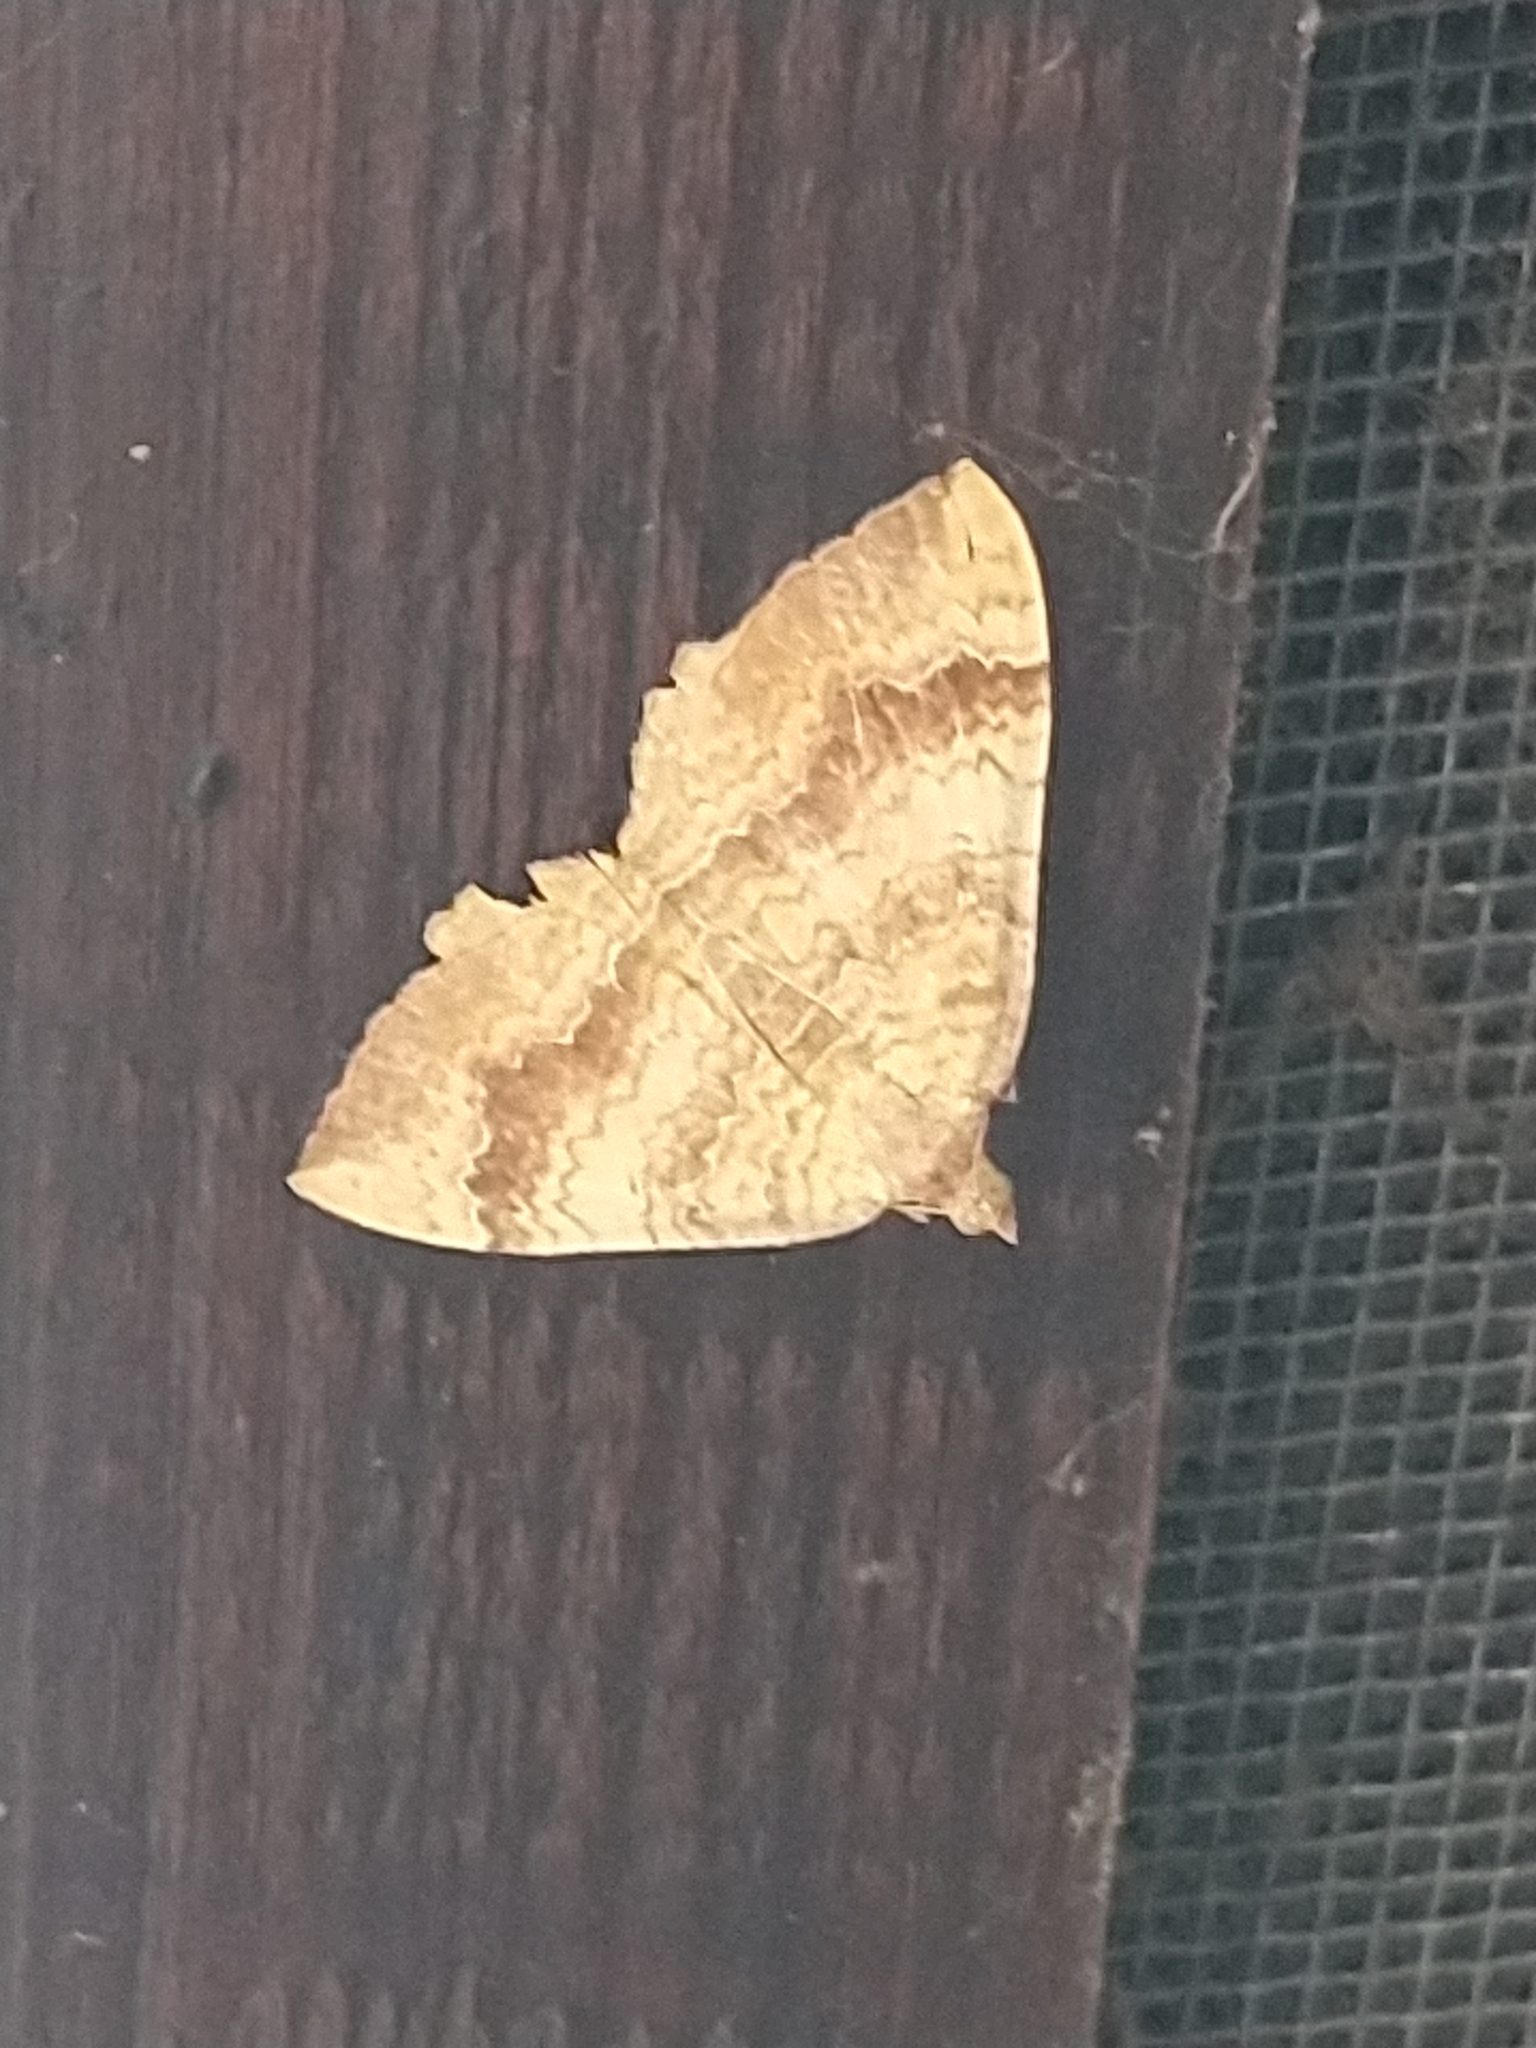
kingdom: Animalia
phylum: Arthropoda
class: Insecta
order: Lepidoptera
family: Geometridae
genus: Camptogramma
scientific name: Camptogramma bilineata
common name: Yellow shell
